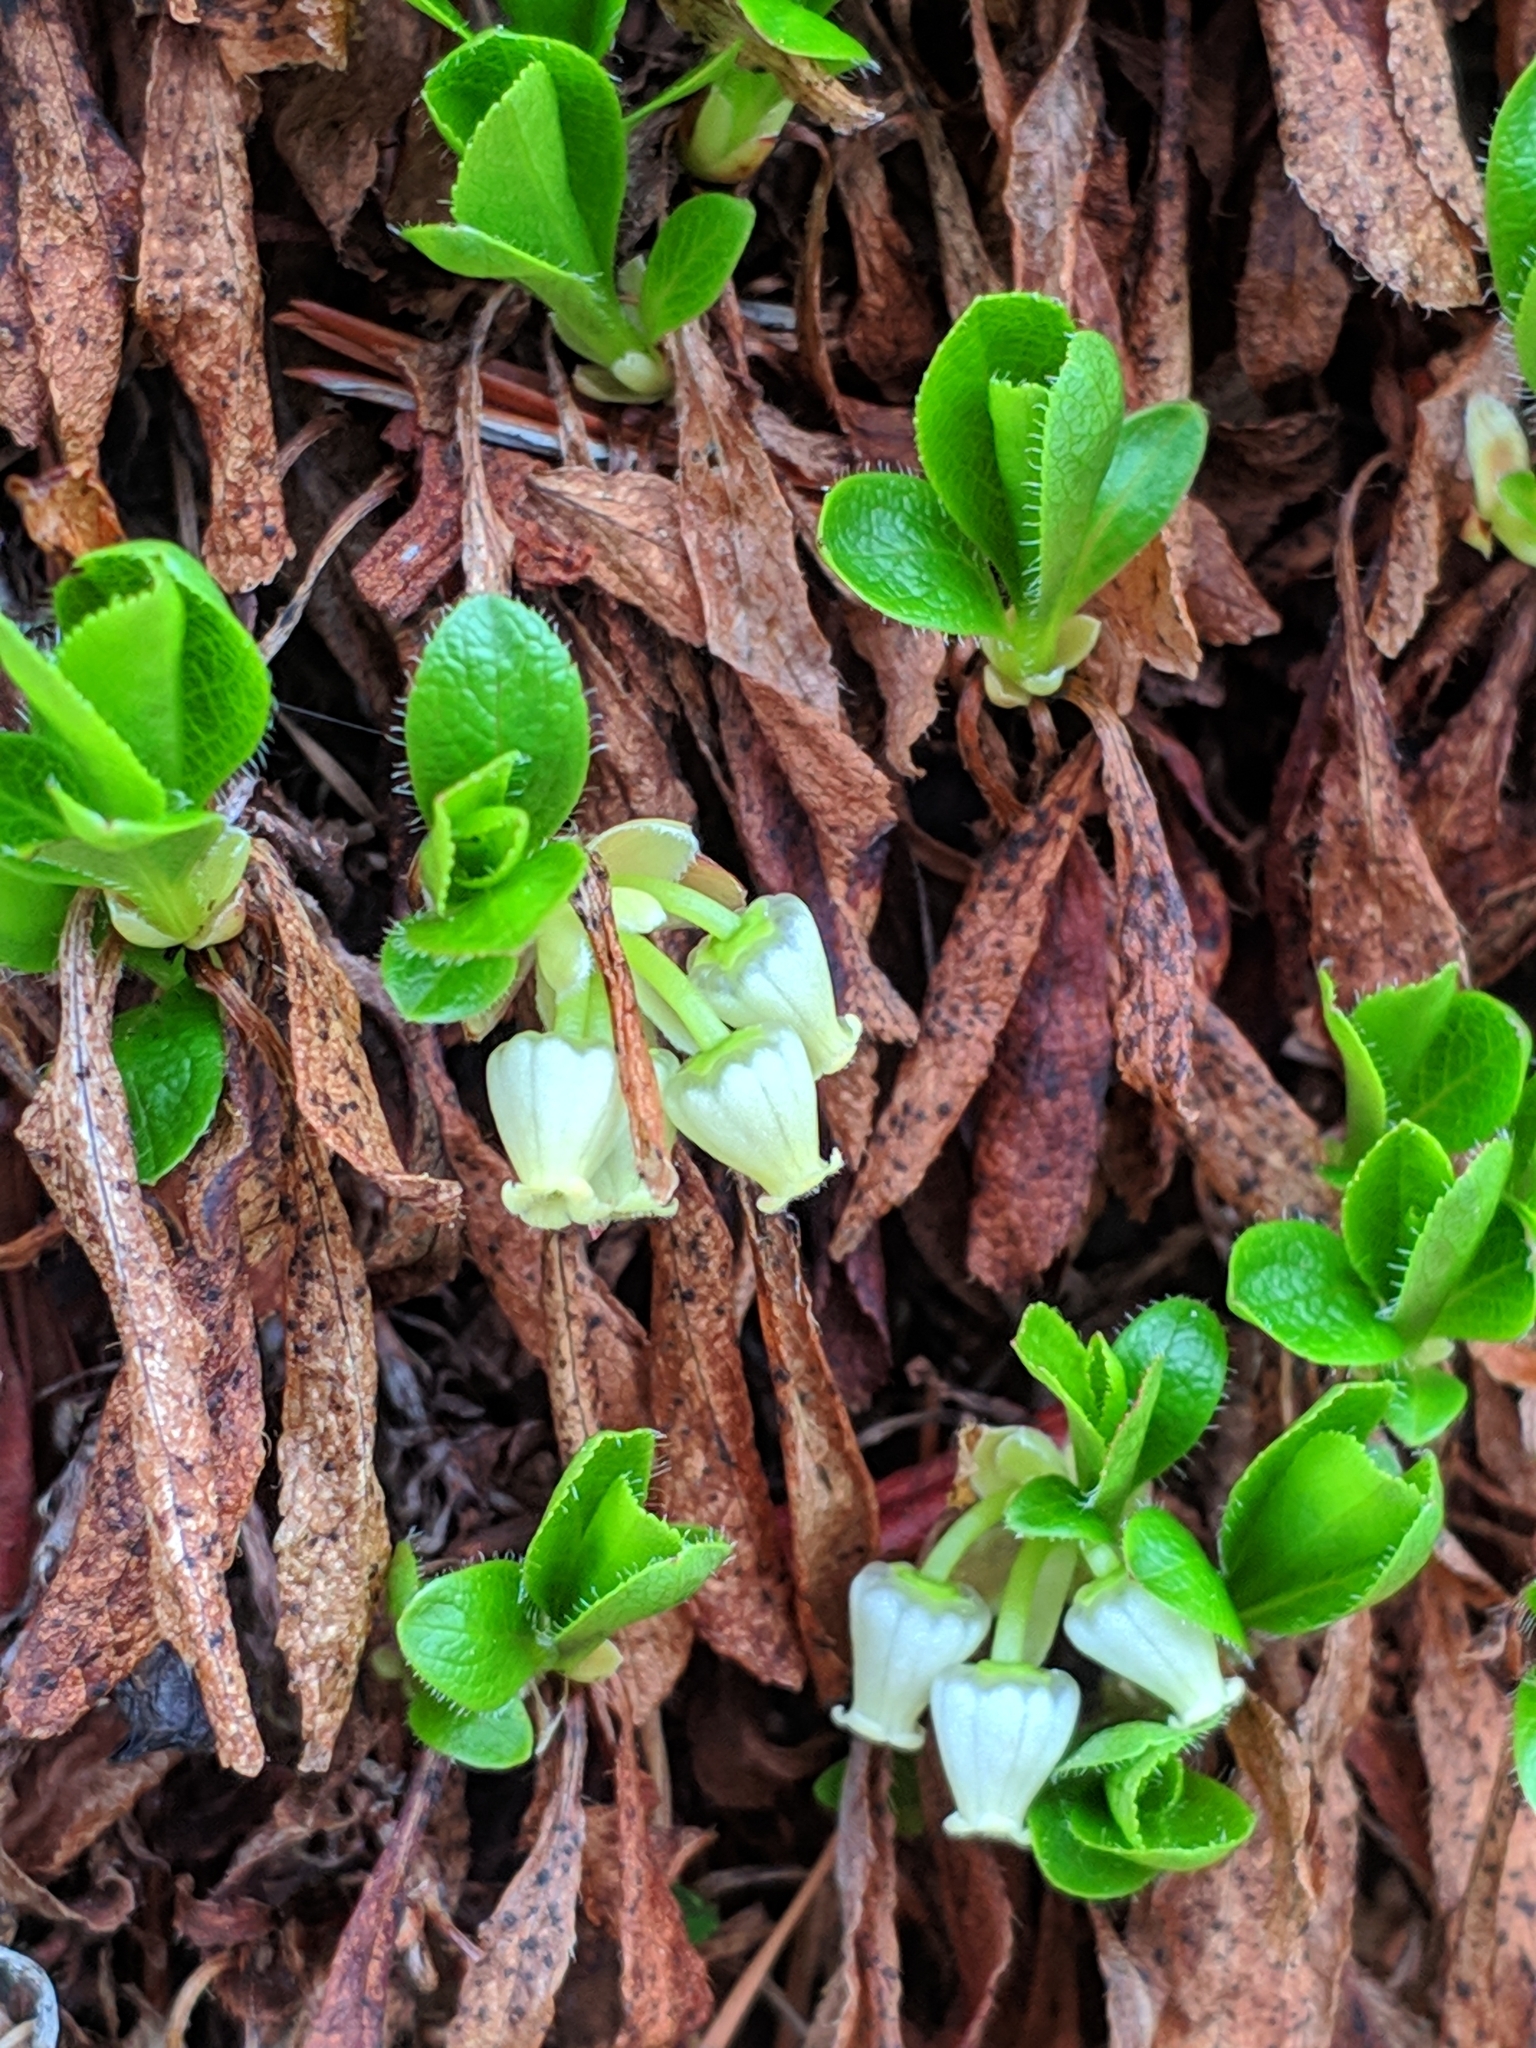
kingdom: Plantae
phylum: Tracheophyta
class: Magnoliopsida
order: Ericales
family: Ericaceae
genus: Arctostaphylos
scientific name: Arctostaphylos alpinus
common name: Alpine bearberry
